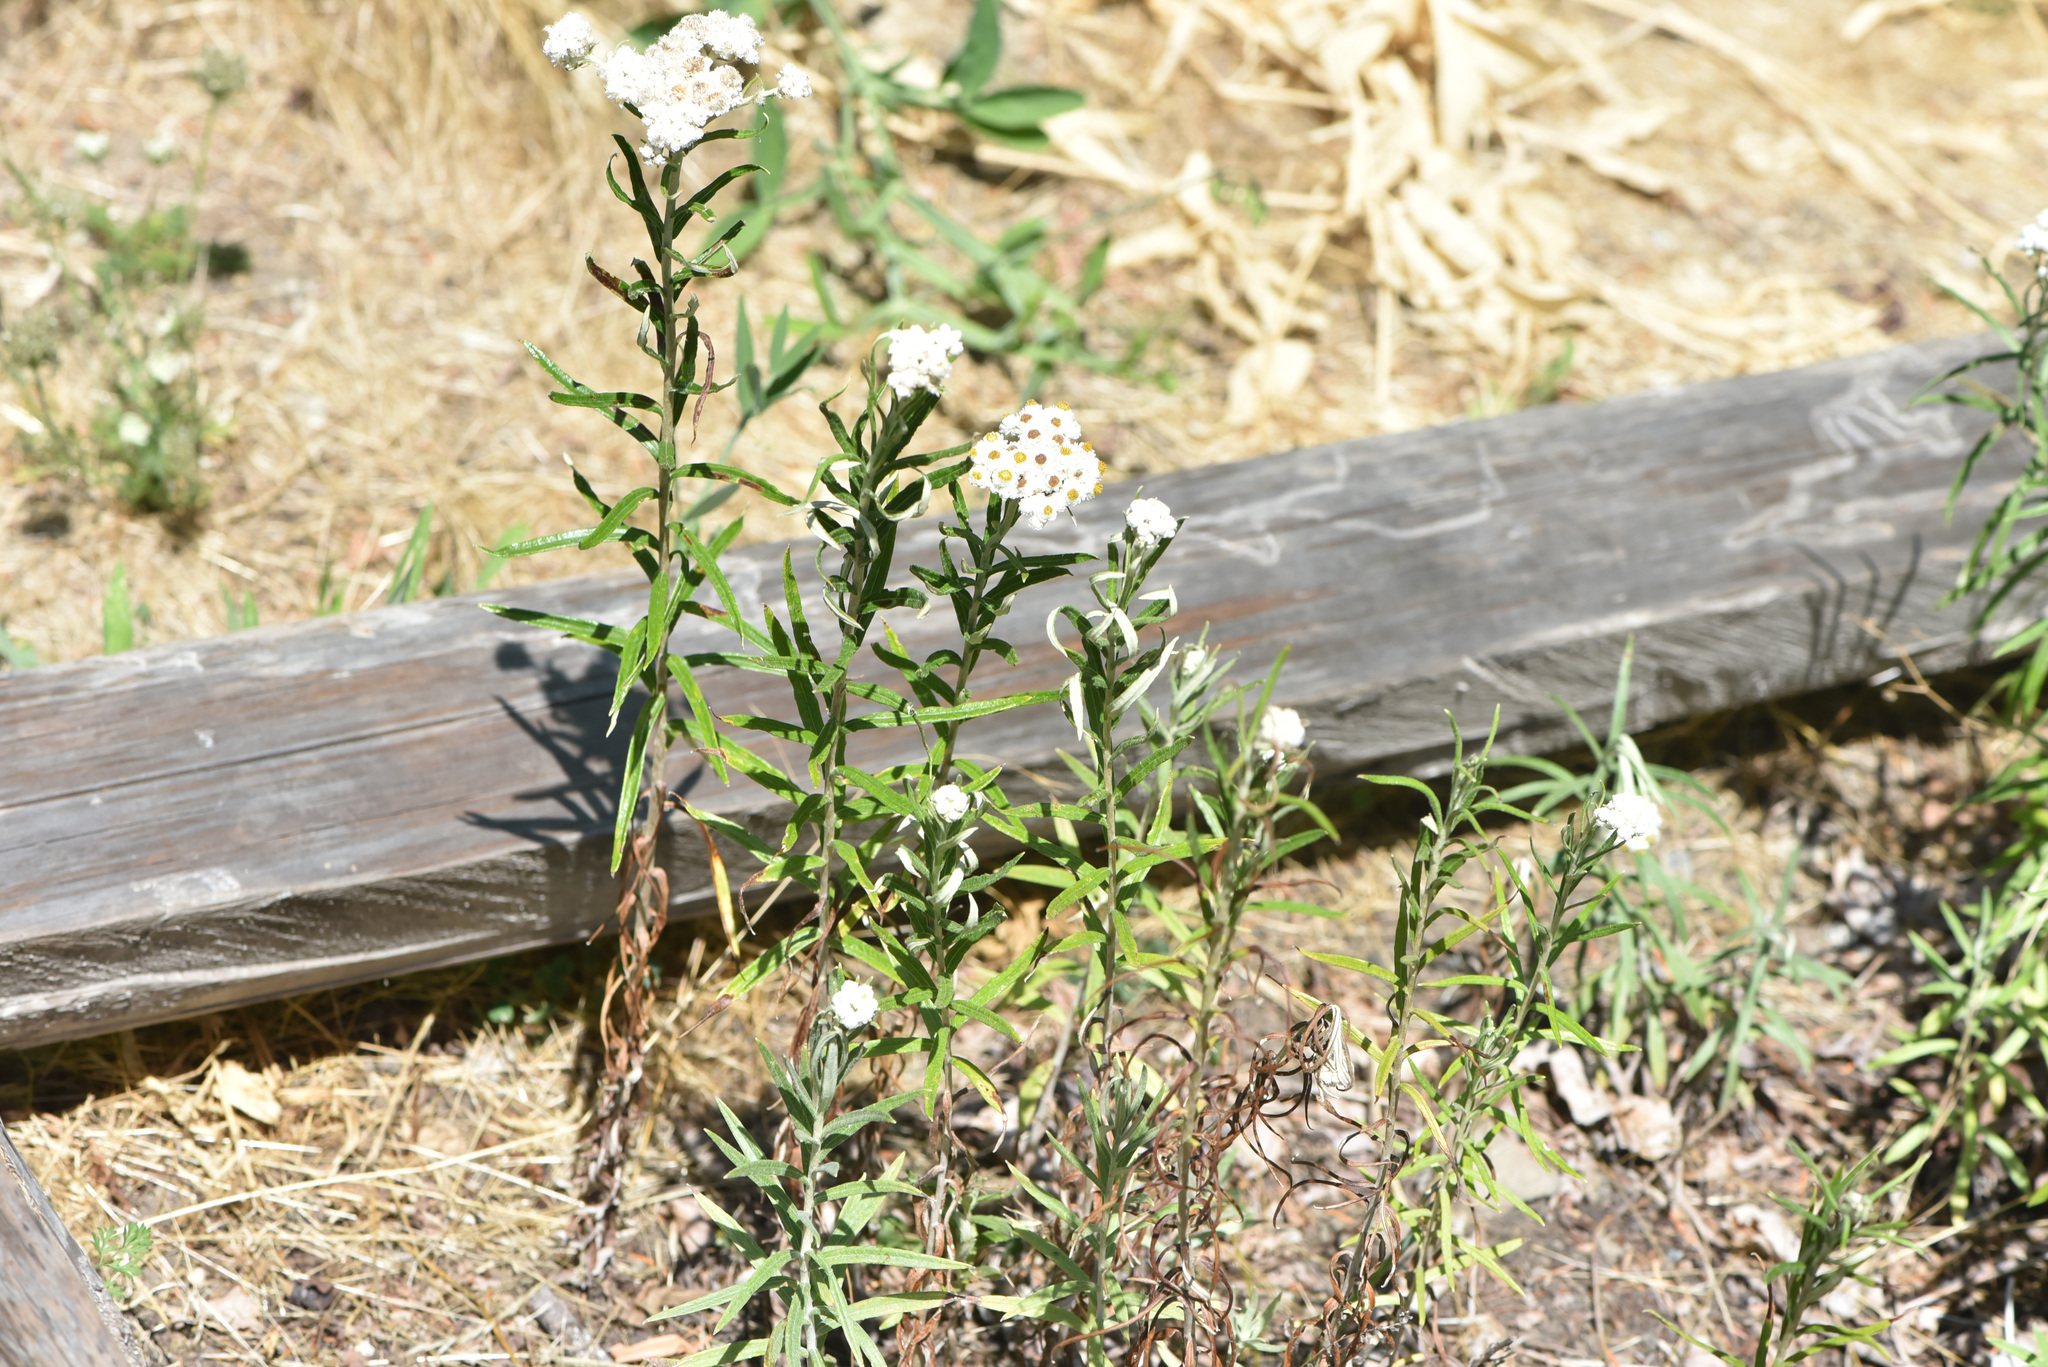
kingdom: Plantae
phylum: Tracheophyta
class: Magnoliopsida
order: Asterales
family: Asteraceae
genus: Anaphalis
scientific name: Anaphalis margaritacea
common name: Pearly everlasting
